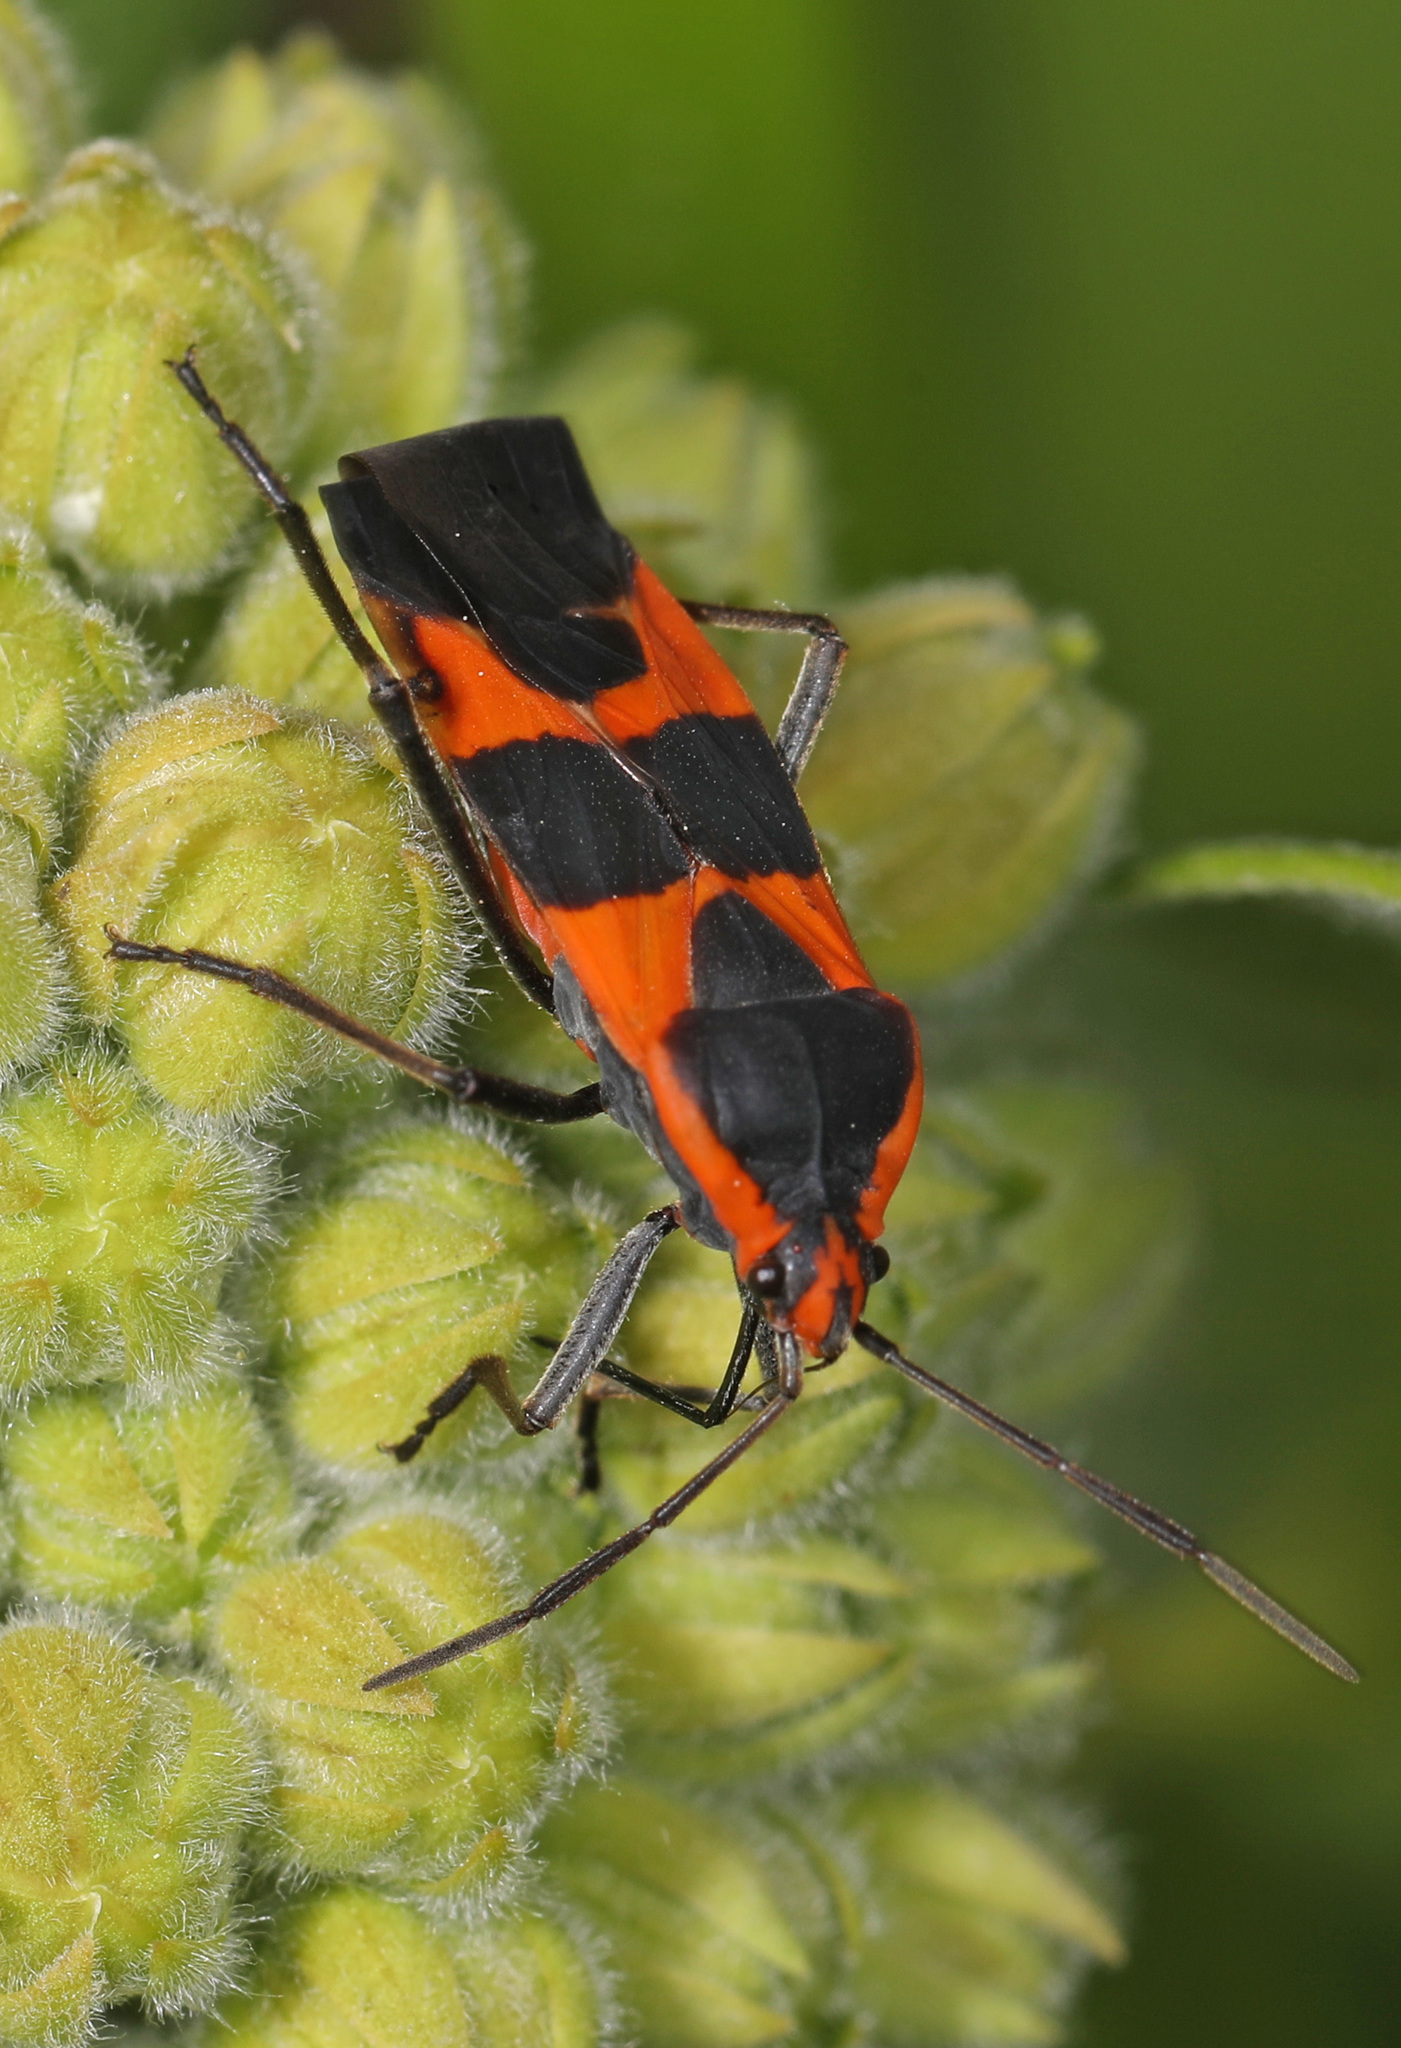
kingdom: Animalia
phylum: Arthropoda
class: Insecta
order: Hemiptera
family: Lygaeidae
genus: Oncopeltus
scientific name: Oncopeltus fasciatus
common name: Large milkweed bug
